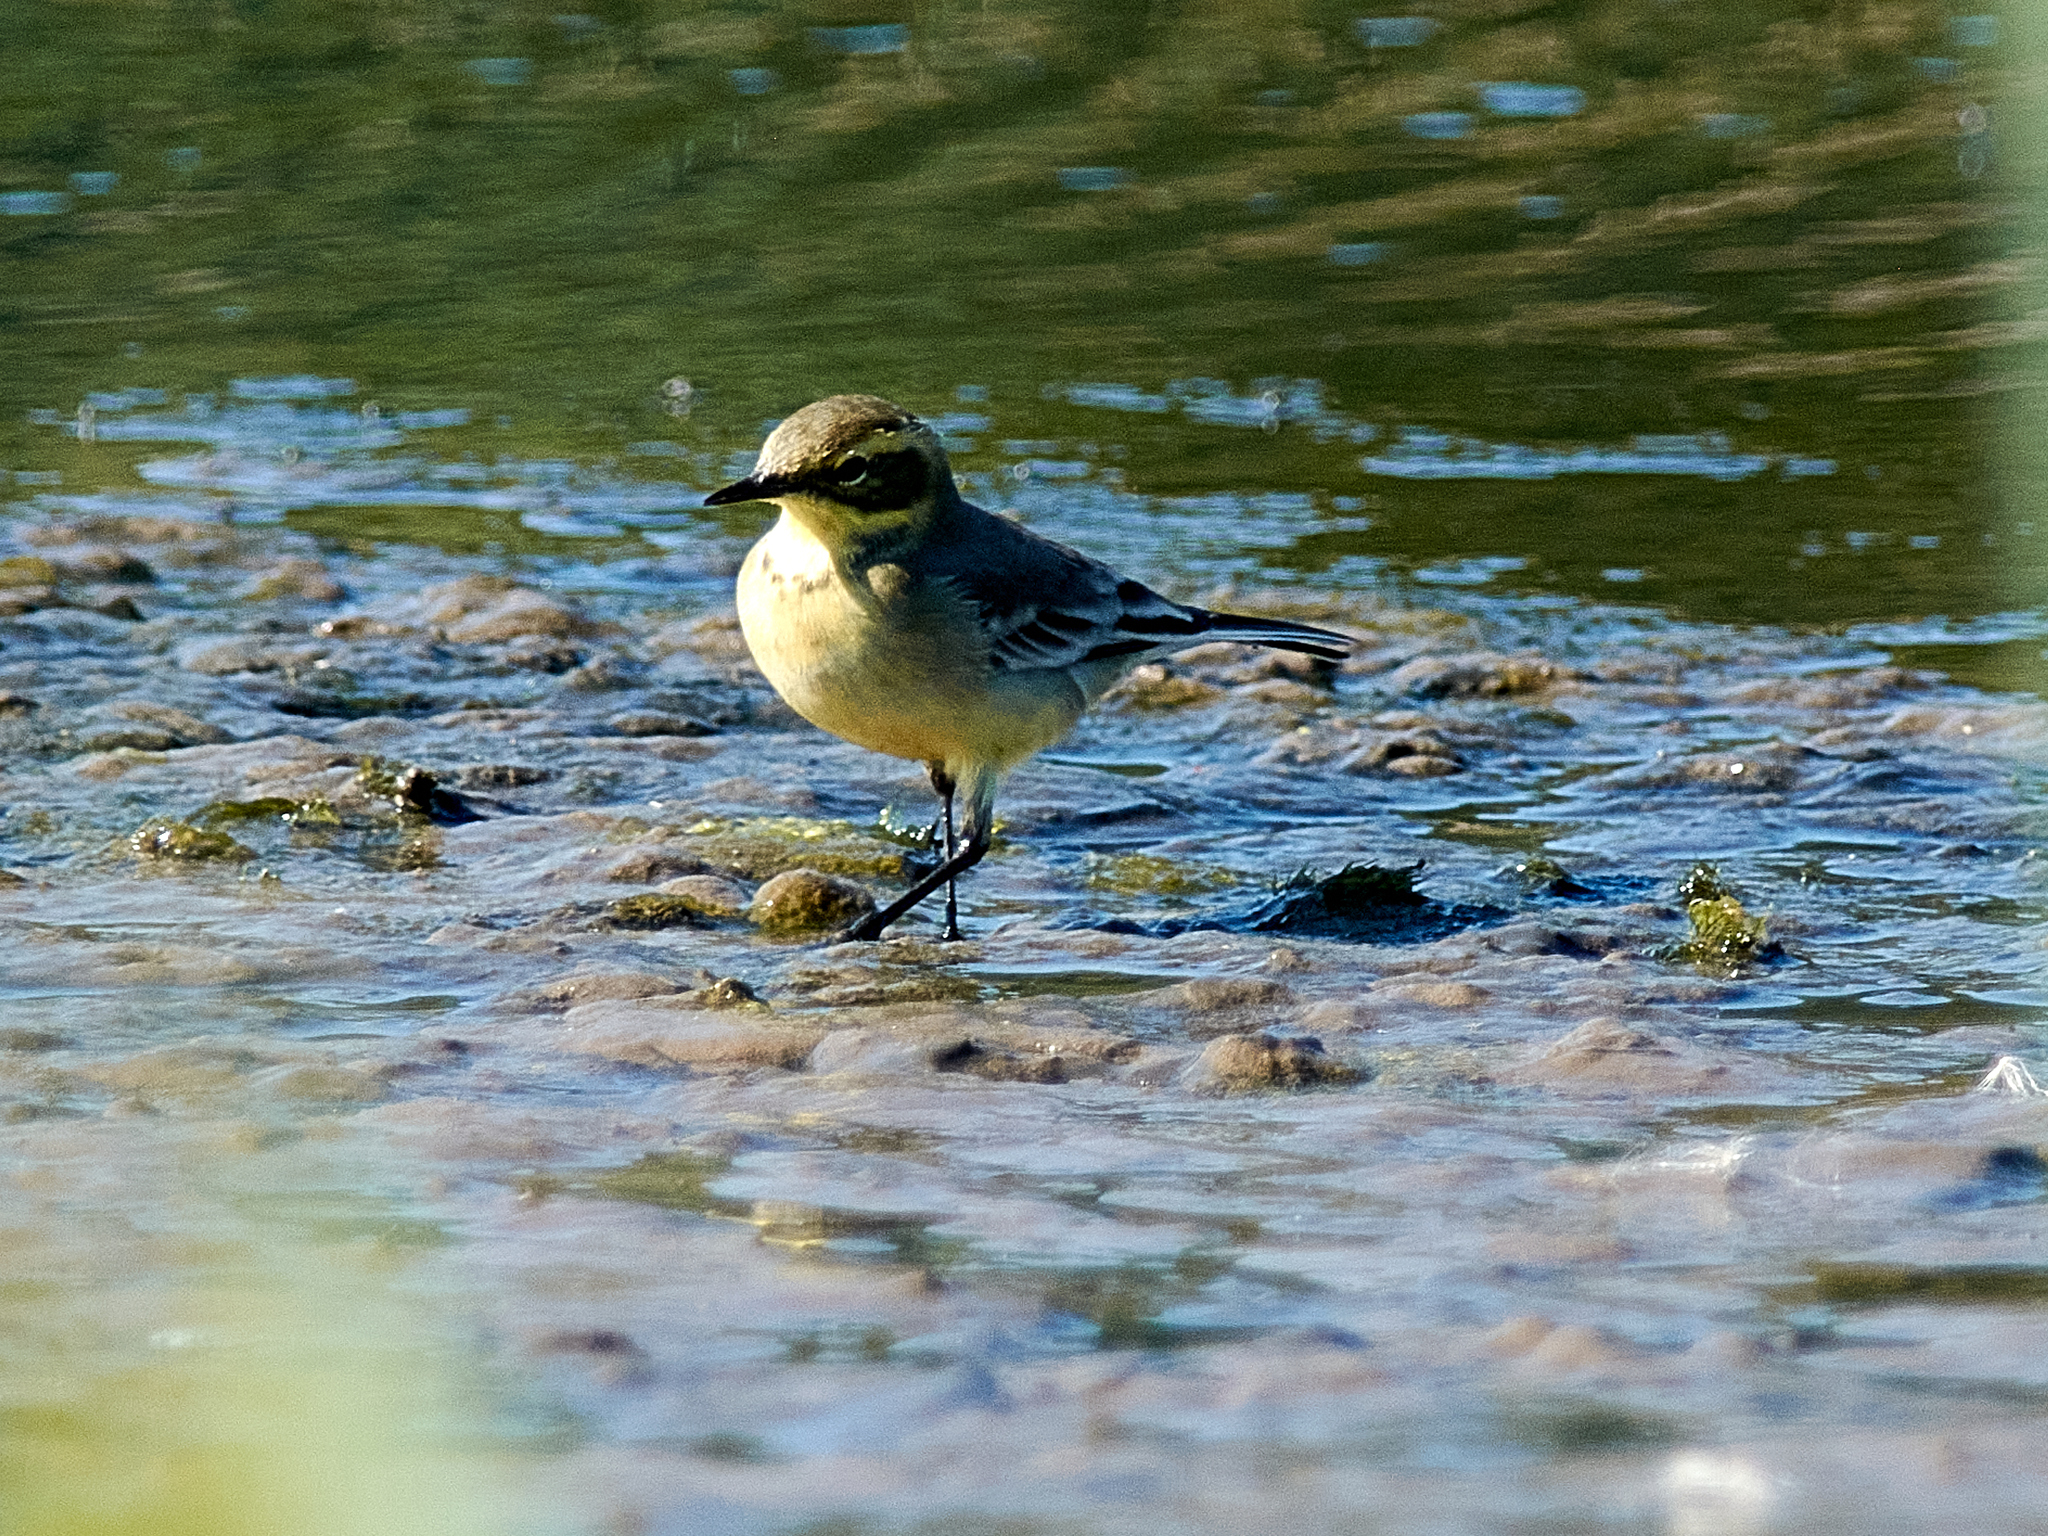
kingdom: Animalia
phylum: Chordata
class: Aves
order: Passeriformes
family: Motacillidae
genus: Motacilla
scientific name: Motacilla citreola
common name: Citrine wagtail
